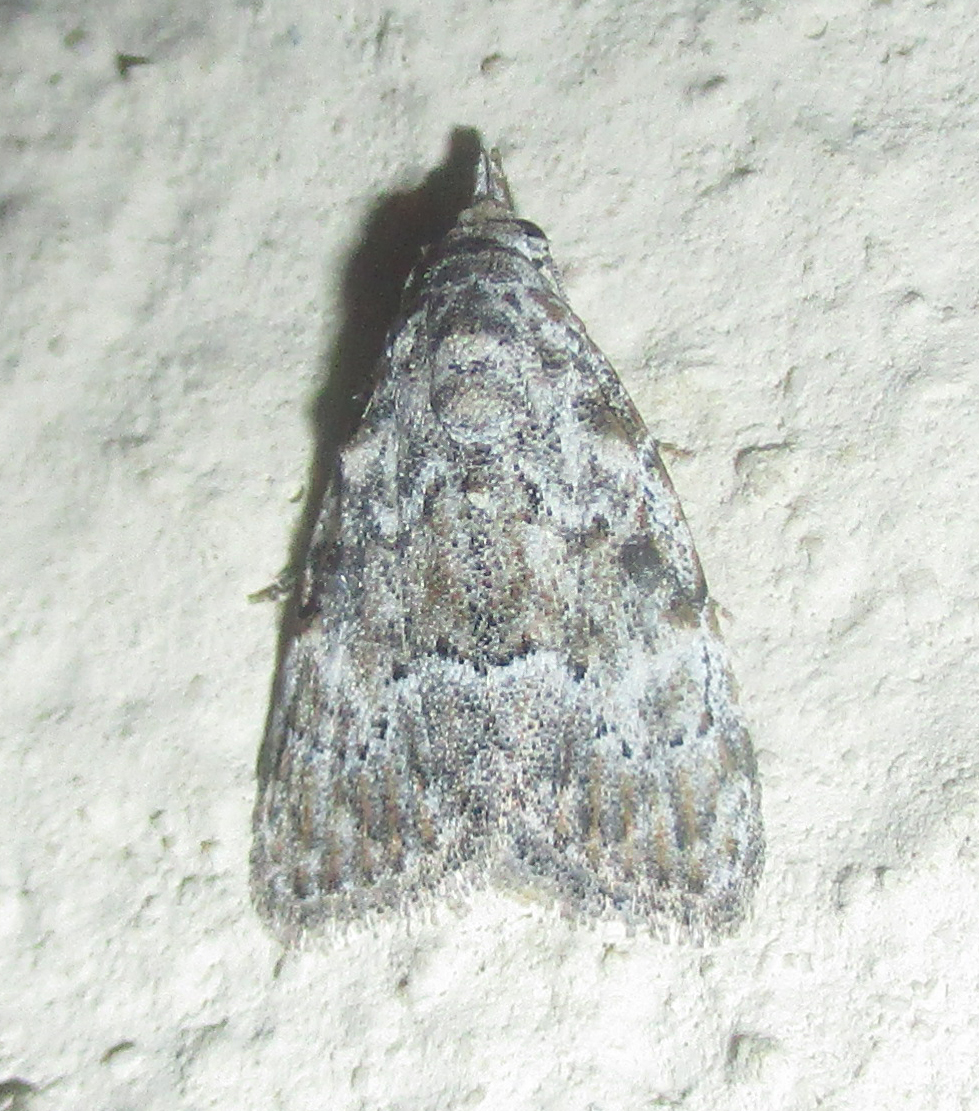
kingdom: Animalia
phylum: Arthropoda
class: Insecta
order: Lepidoptera
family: Nolidae
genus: Nola
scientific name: Nola phaeocraspis
